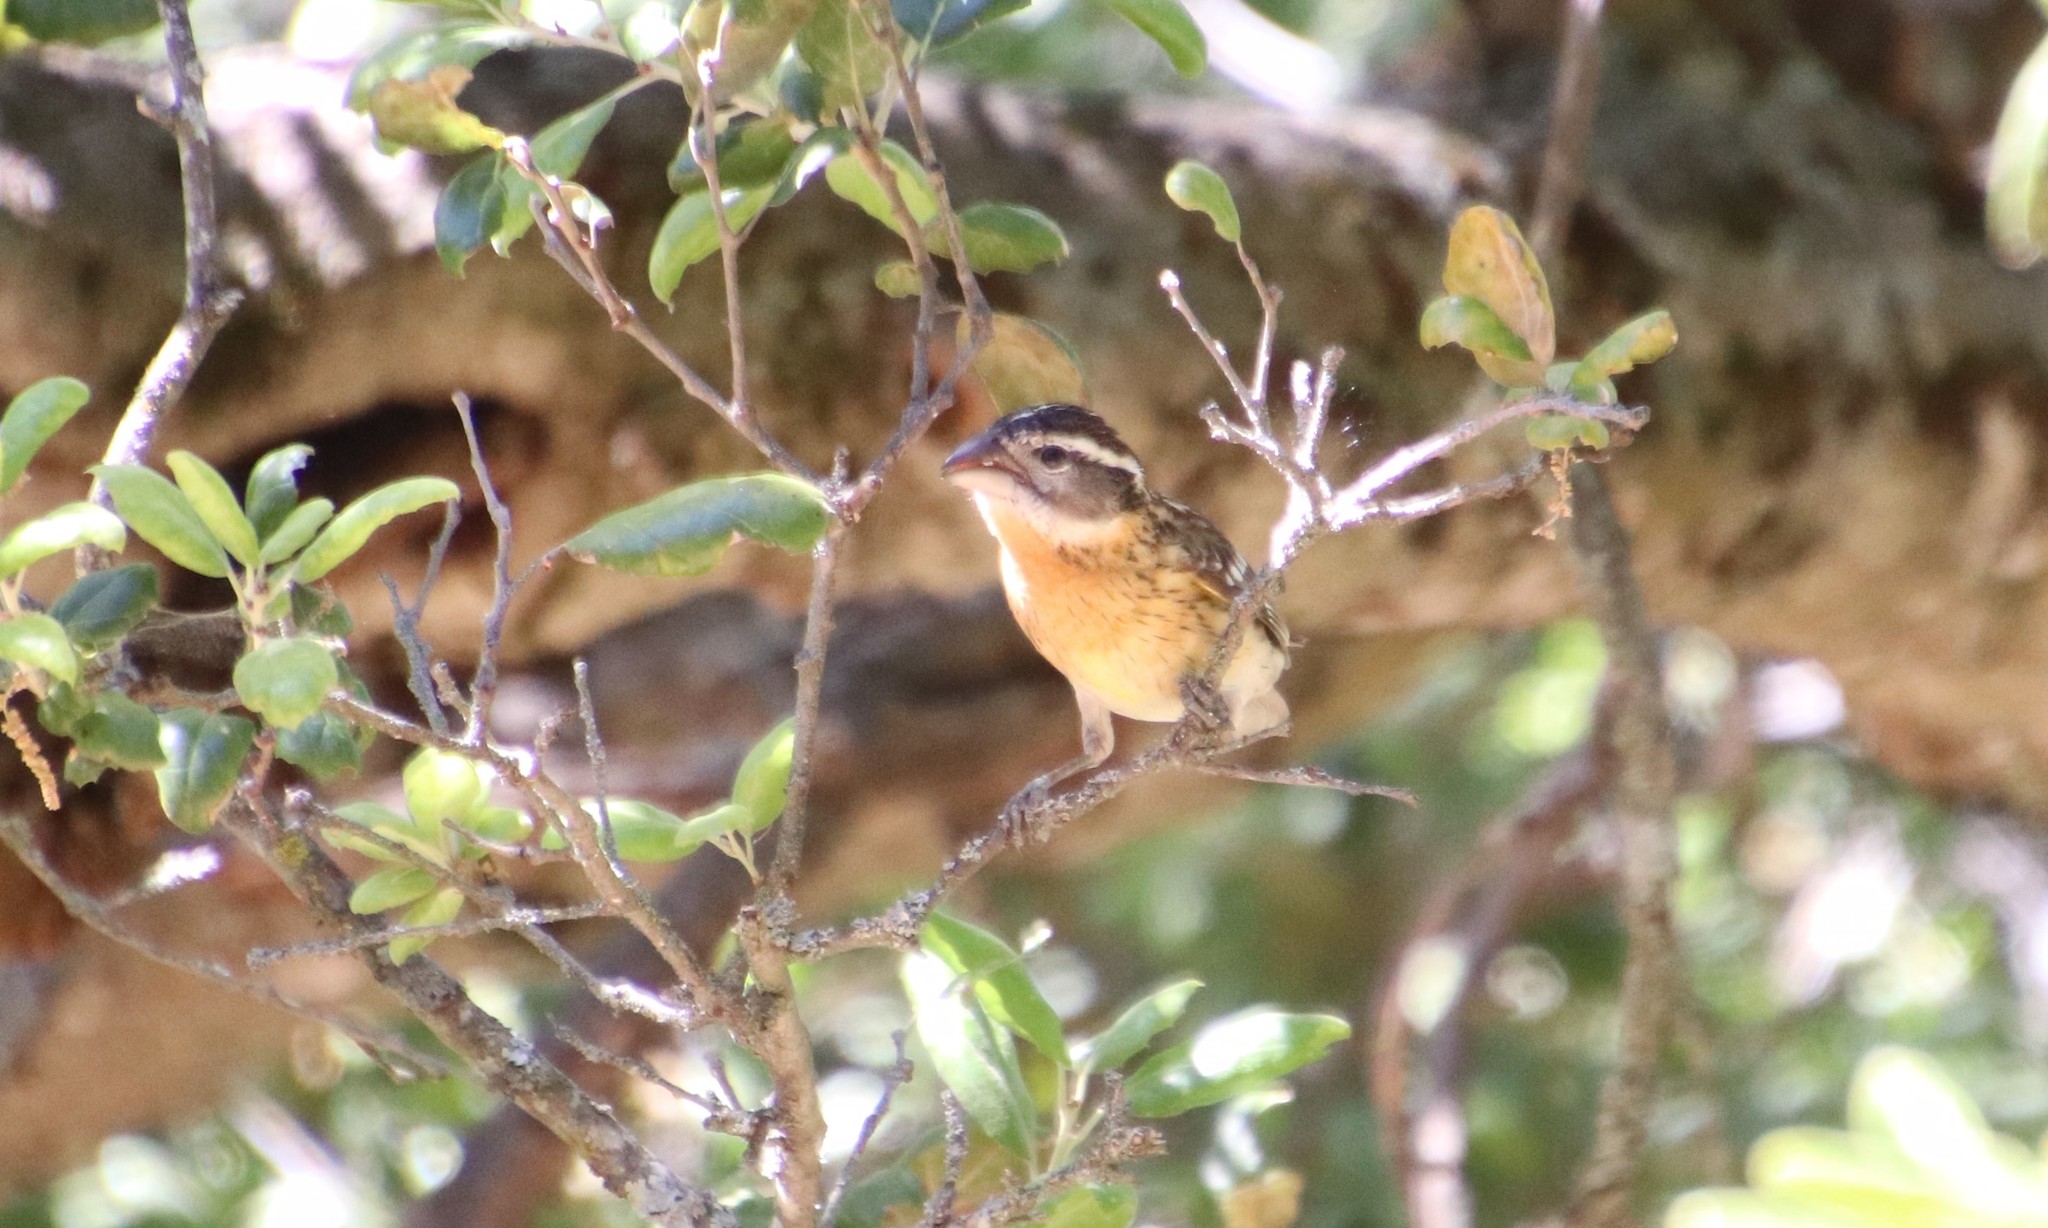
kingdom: Animalia
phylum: Chordata
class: Aves
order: Passeriformes
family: Cardinalidae
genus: Pheucticus
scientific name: Pheucticus melanocephalus
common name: Black-headed grosbeak
